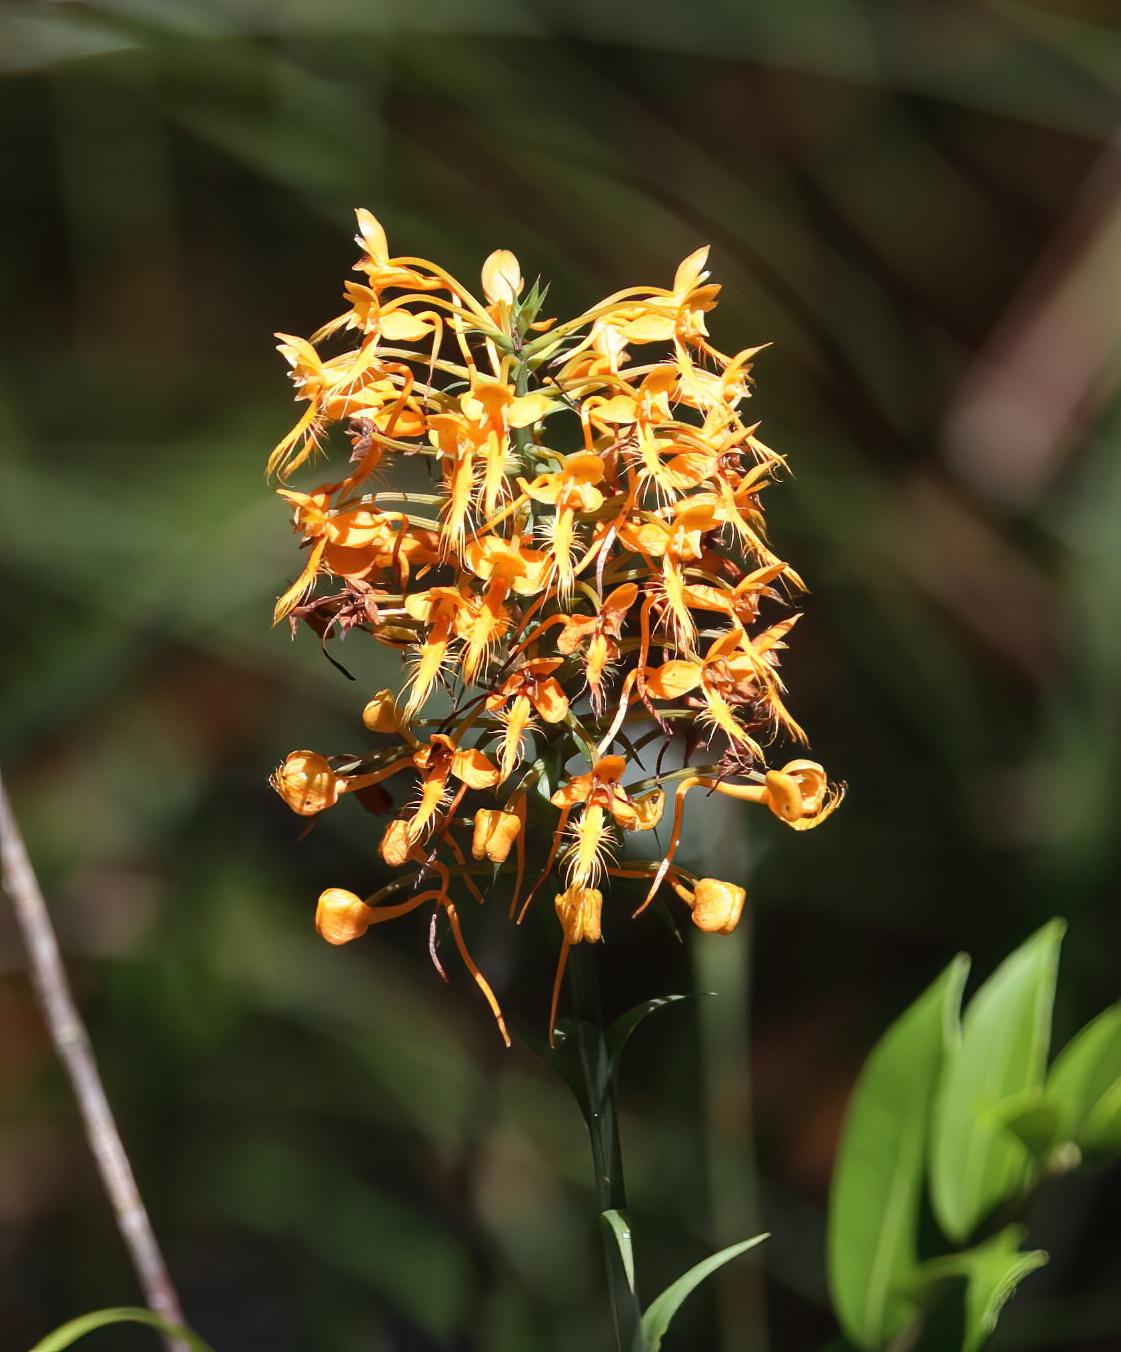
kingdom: Plantae
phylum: Tracheophyta
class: Liliopsida
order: Asparagales
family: Orchidaceae
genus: Platanthera
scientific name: Platanthera ciliaris
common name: Yellow fringed orchid
